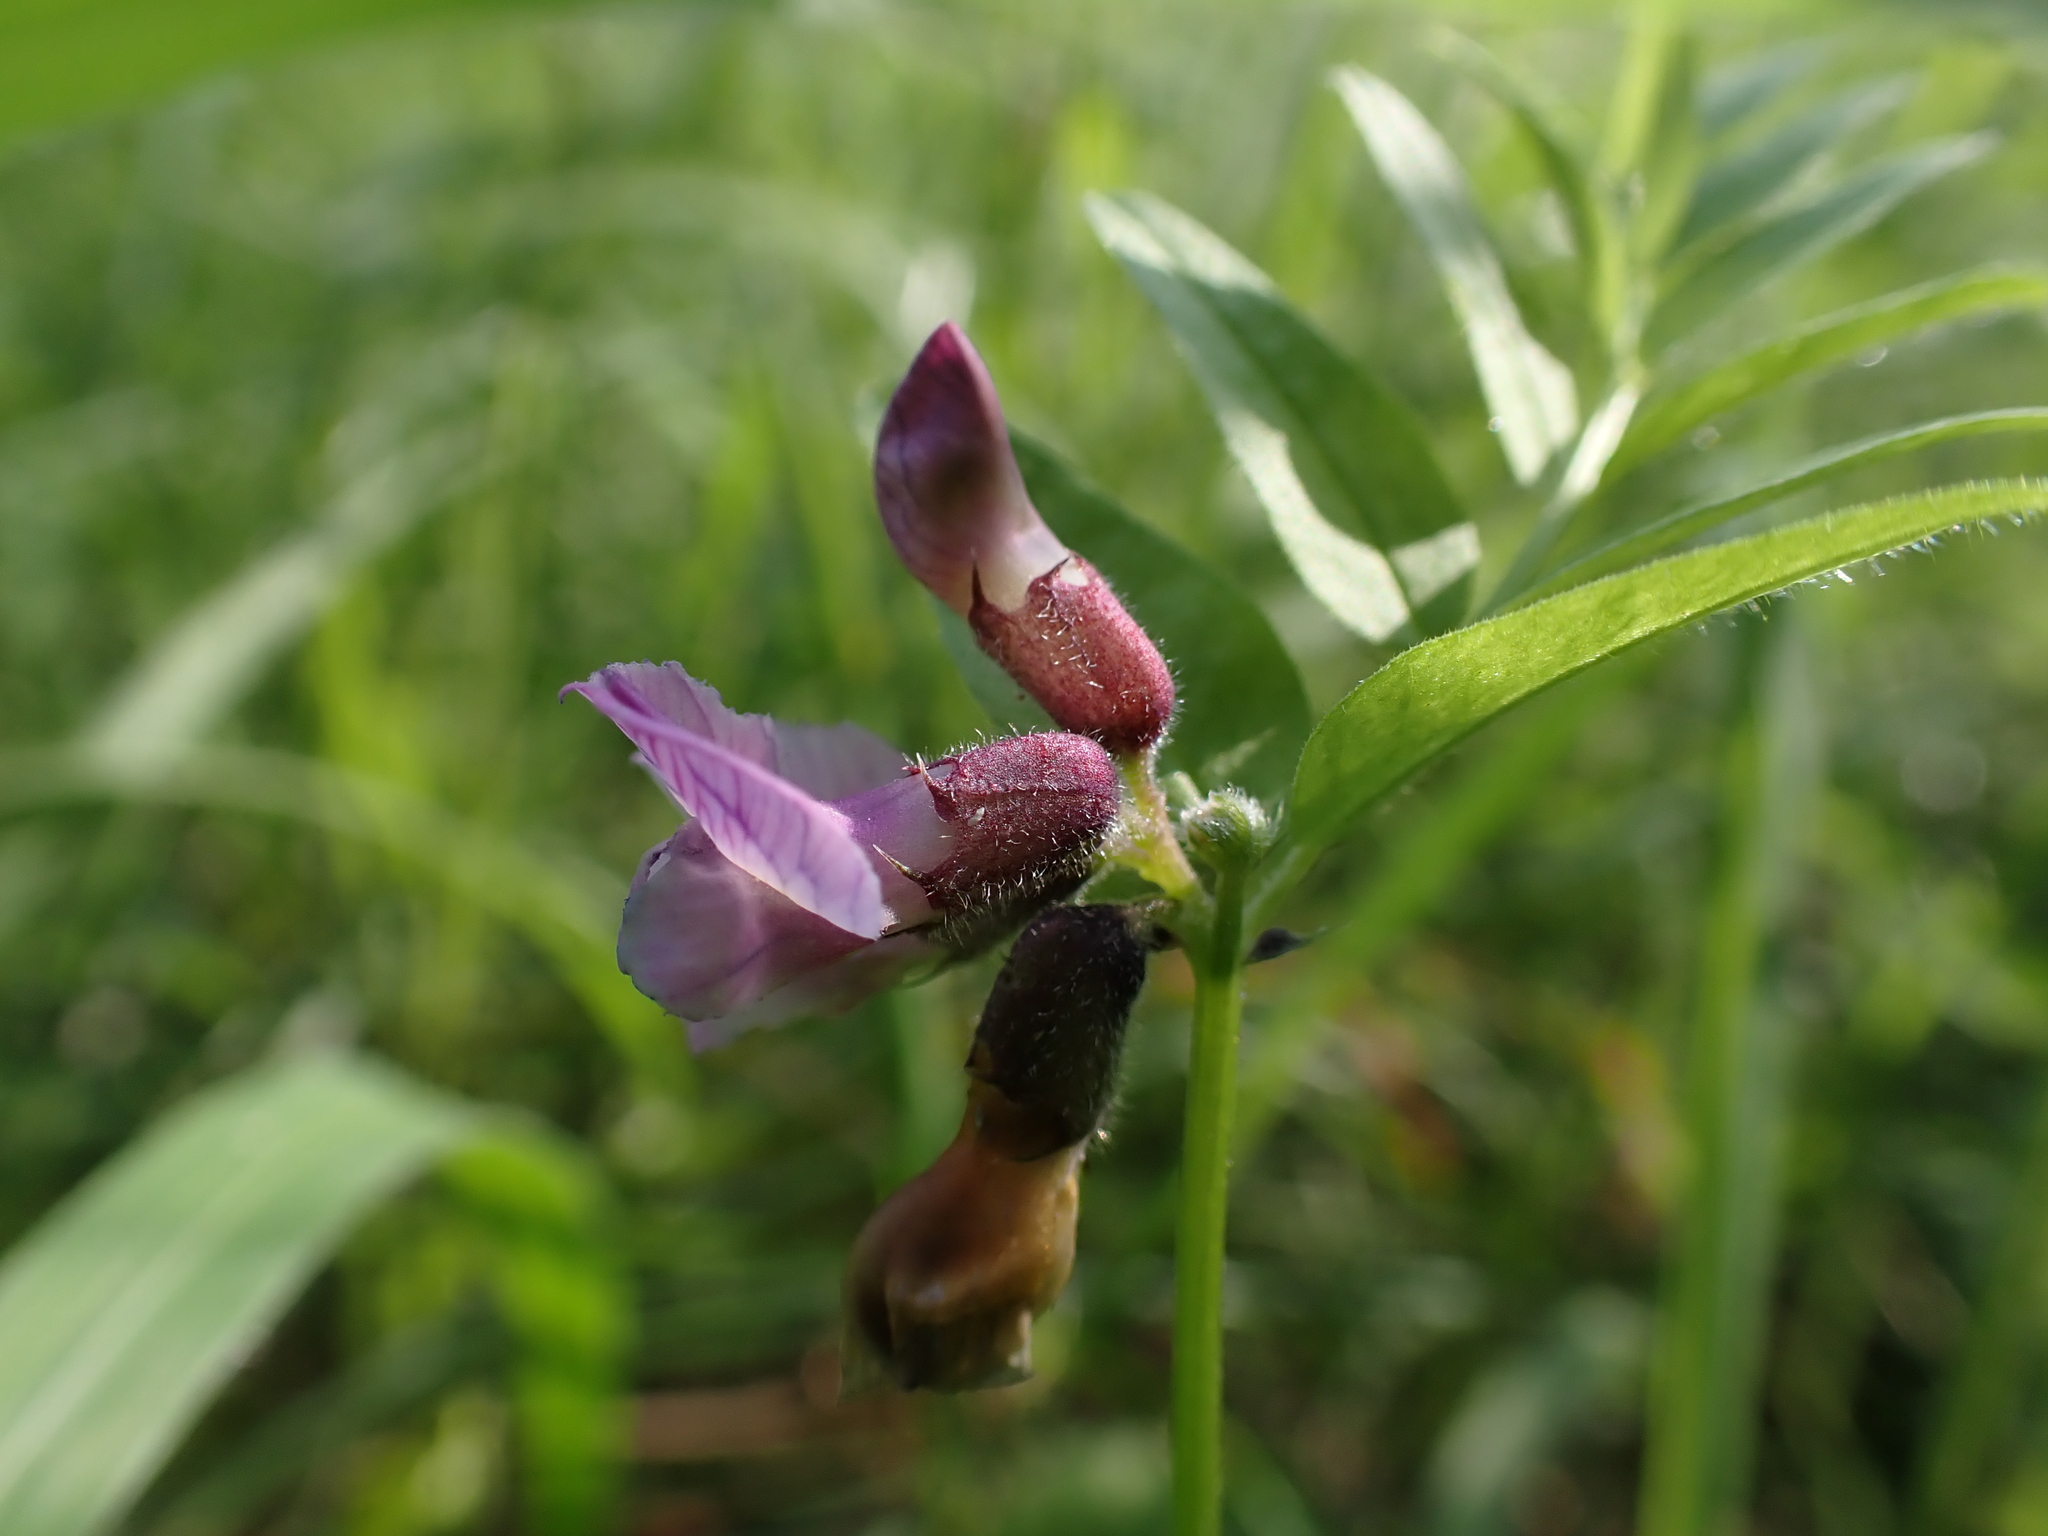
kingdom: Plantae
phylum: Tracheophyta
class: Magnoliopsida
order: Fabales
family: Fabaceae
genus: Vicia
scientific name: Vicia sepium
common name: Bush vetch
